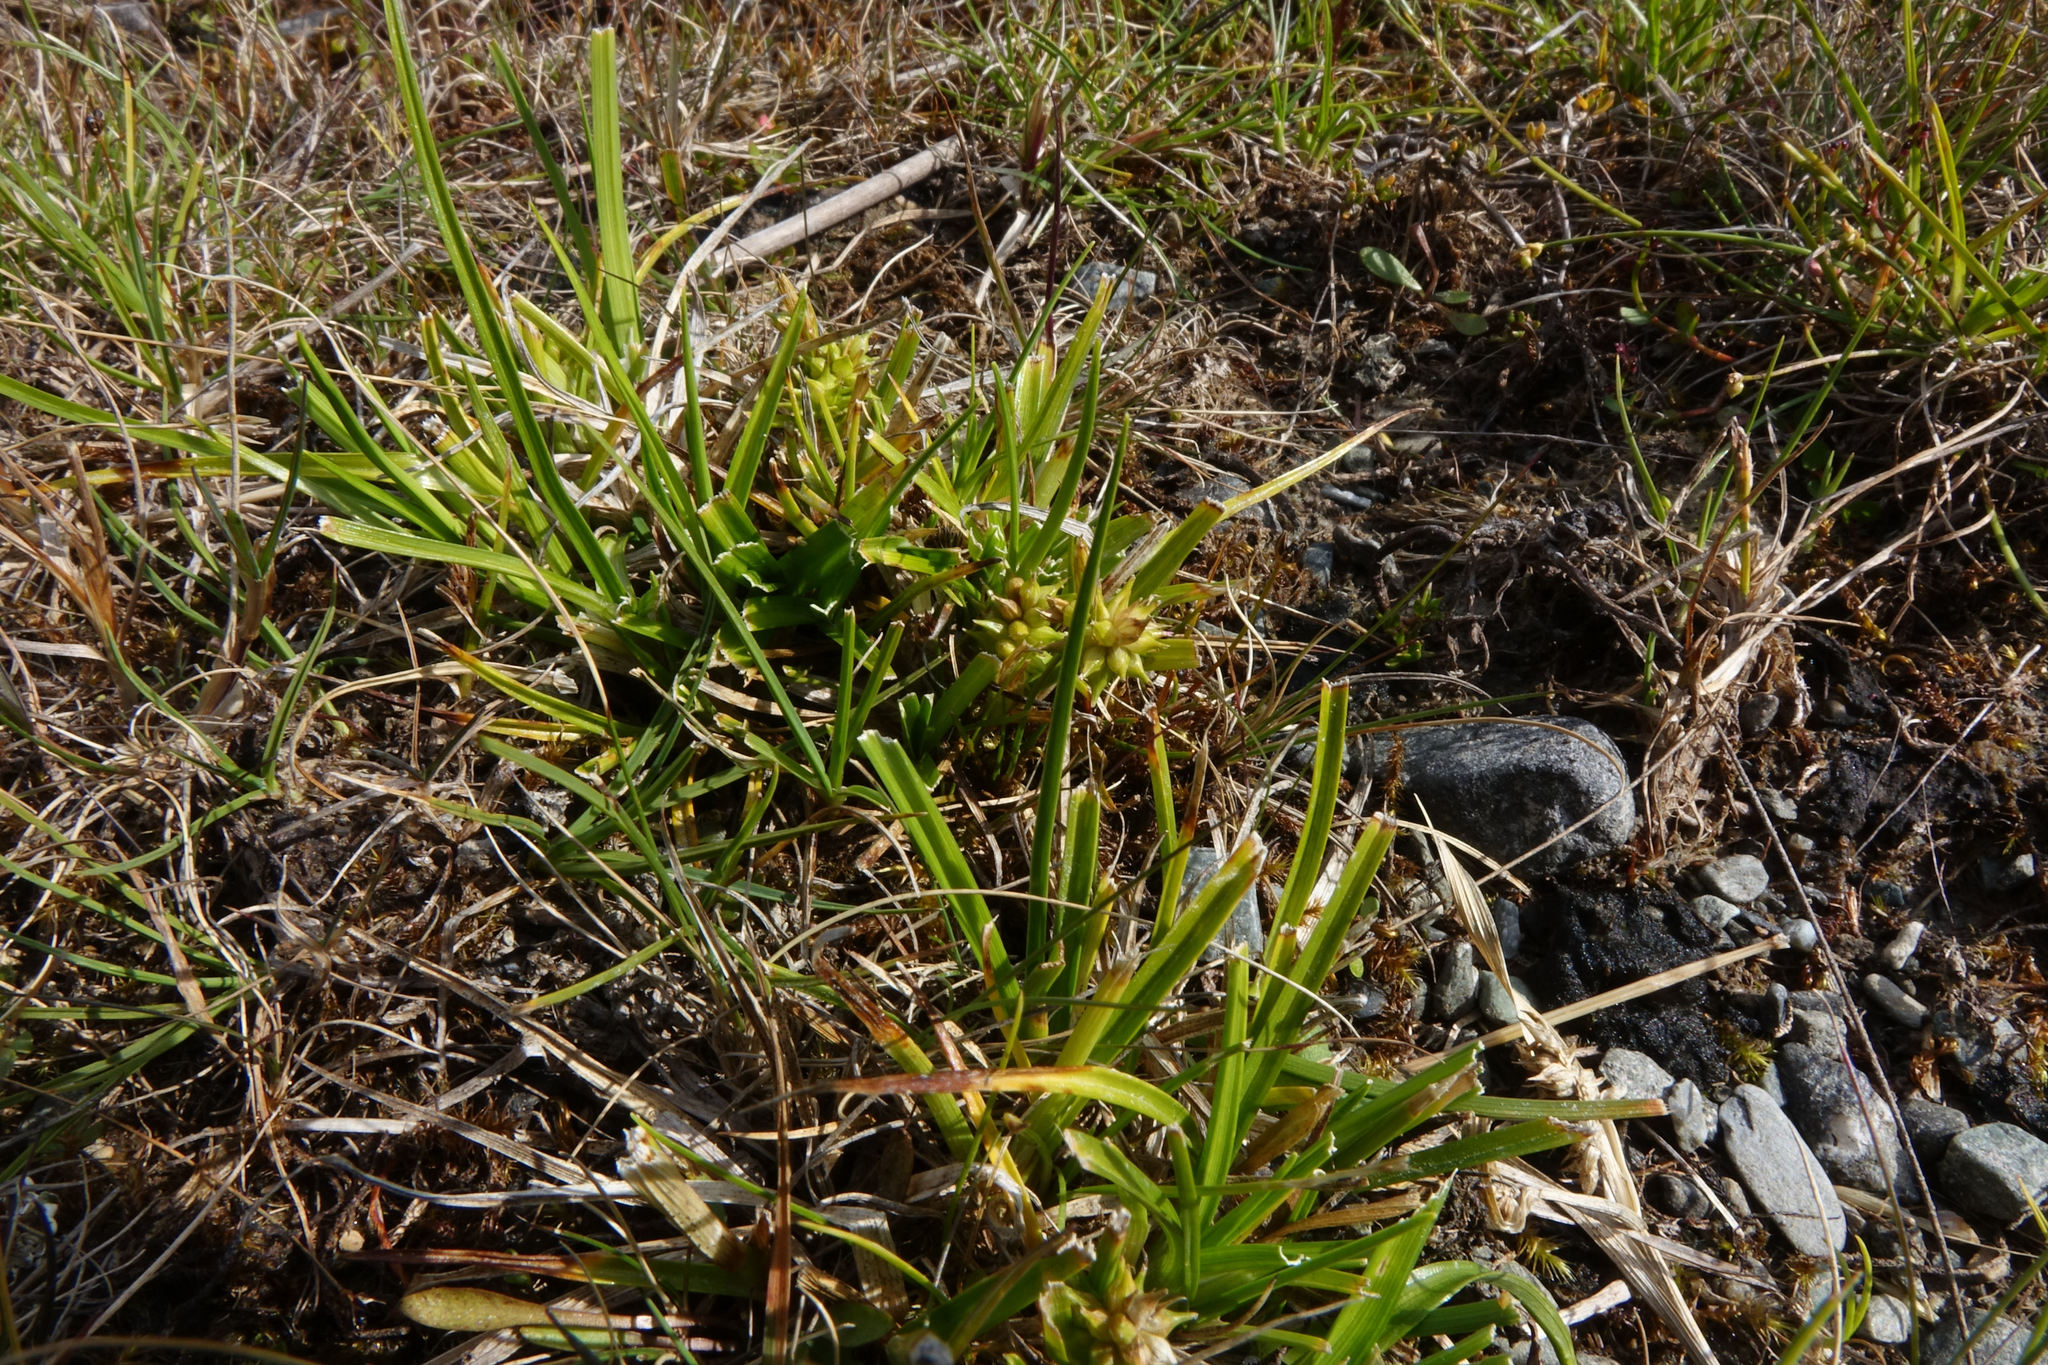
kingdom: Plantae
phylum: Tracheophyta
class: Liliopsida
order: Poales
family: Cyperaceae
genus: Carex
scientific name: Carex flaviformis
